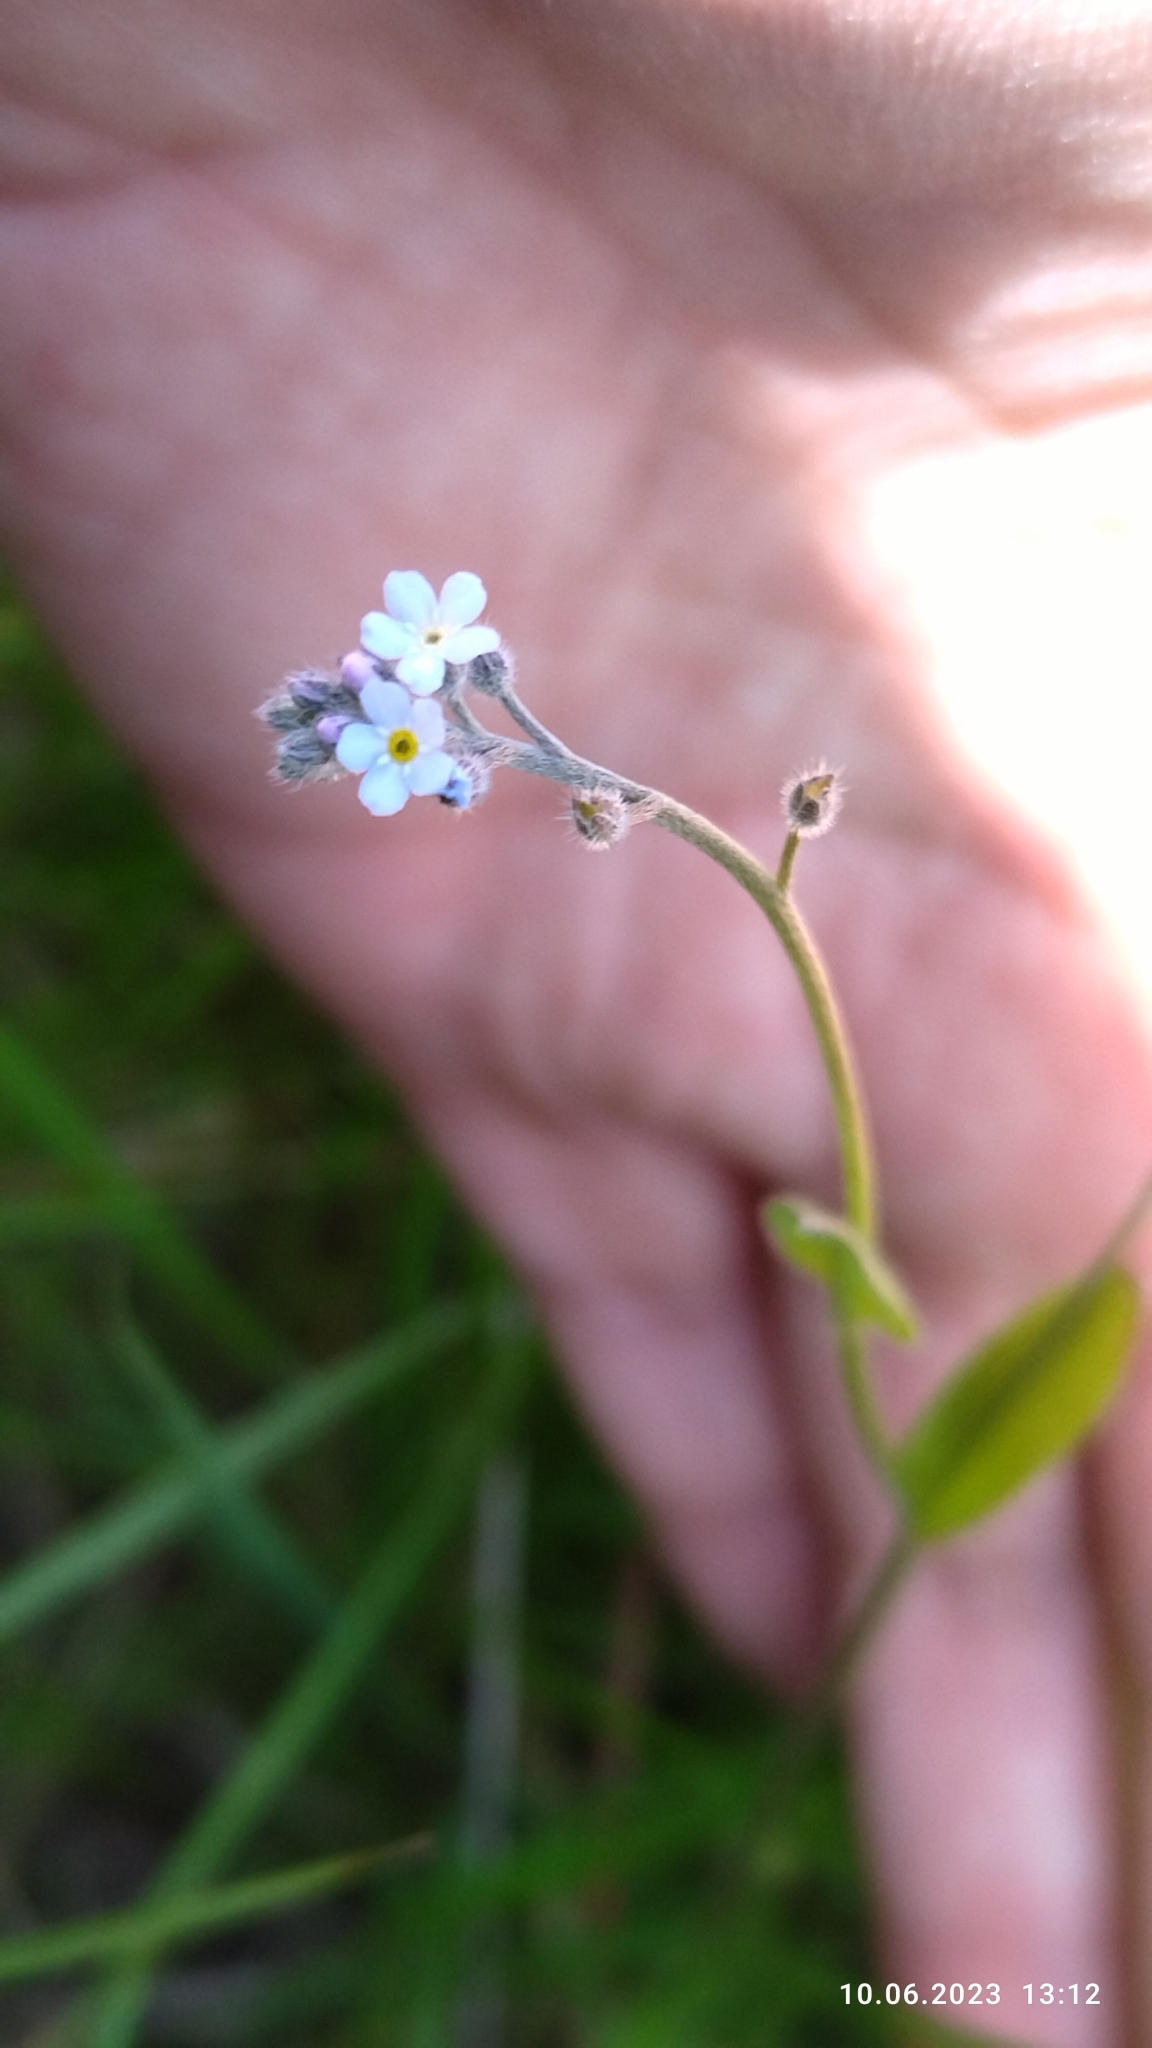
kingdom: Plantae
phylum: Tracheophyta
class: Magnoliopsida
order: Boraginales
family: Boraginaceae
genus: Myosotis
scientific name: Myosotis arvensis
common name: Field forget-me-not
